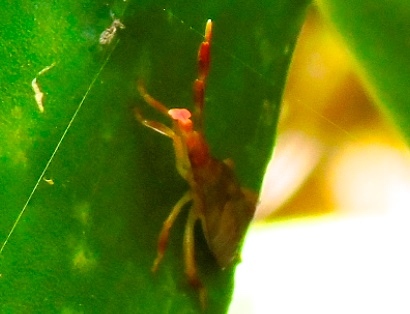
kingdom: Animalia
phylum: Arthropoda
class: Insecta
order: Hemiptera
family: Coreidae
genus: Chelinidea
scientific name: Chelinidea
